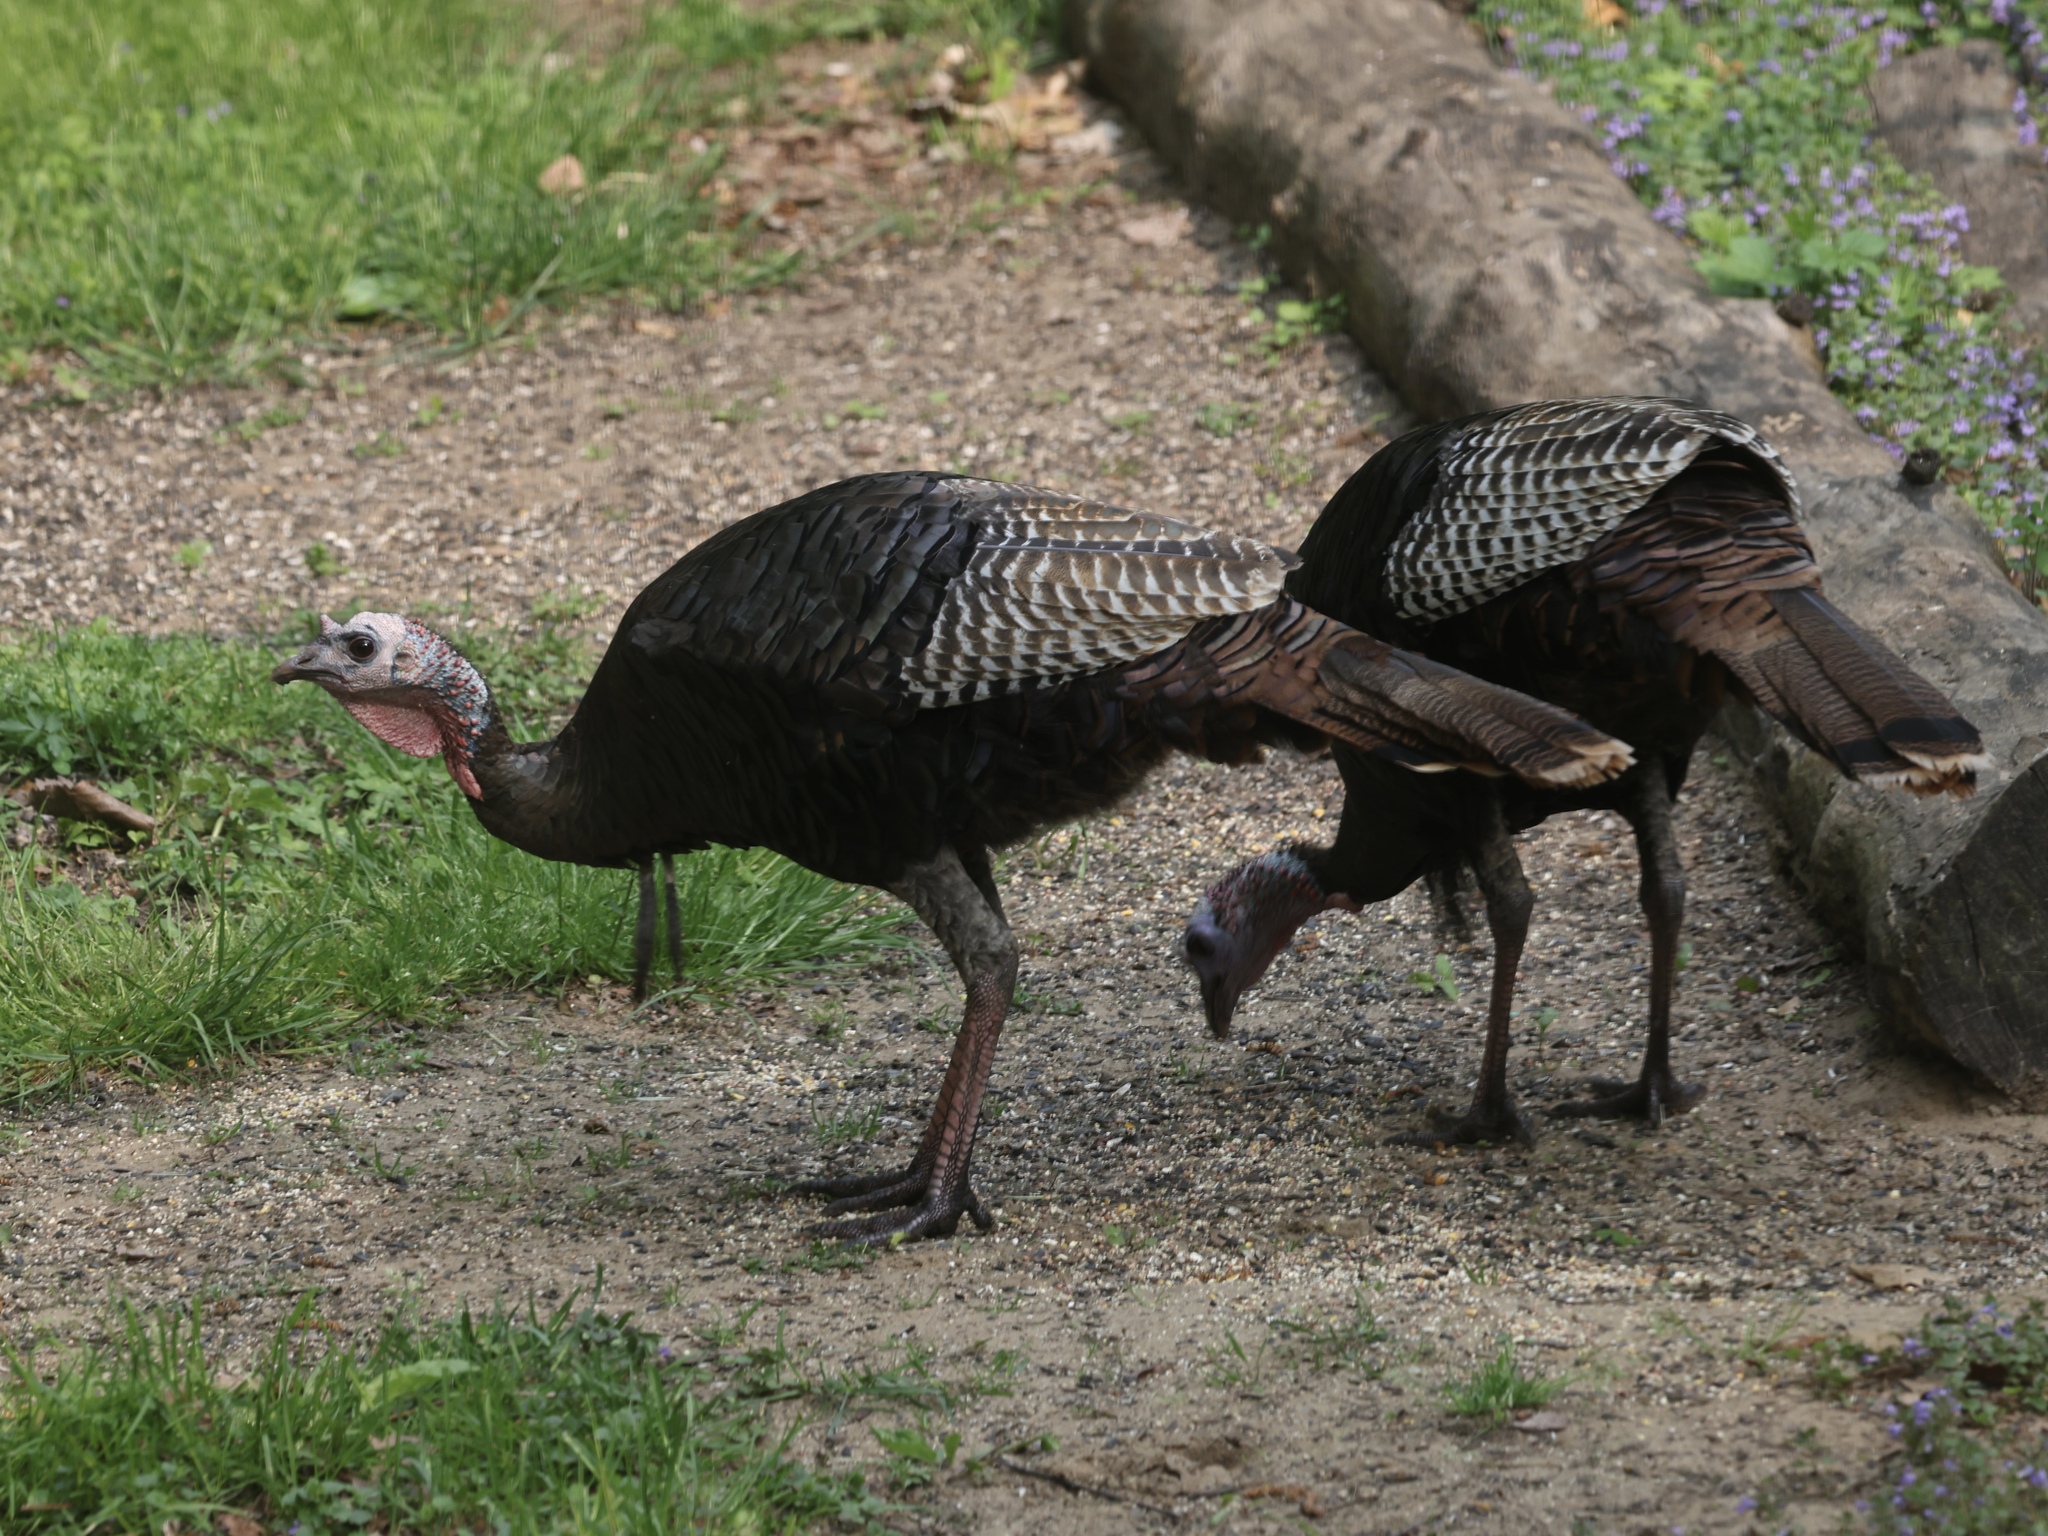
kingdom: Animalia
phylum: Chordata
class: Aves
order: Galliformes
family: Phasianidae
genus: Meleagris
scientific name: Meleagris gallopavo
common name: Wild turkey
